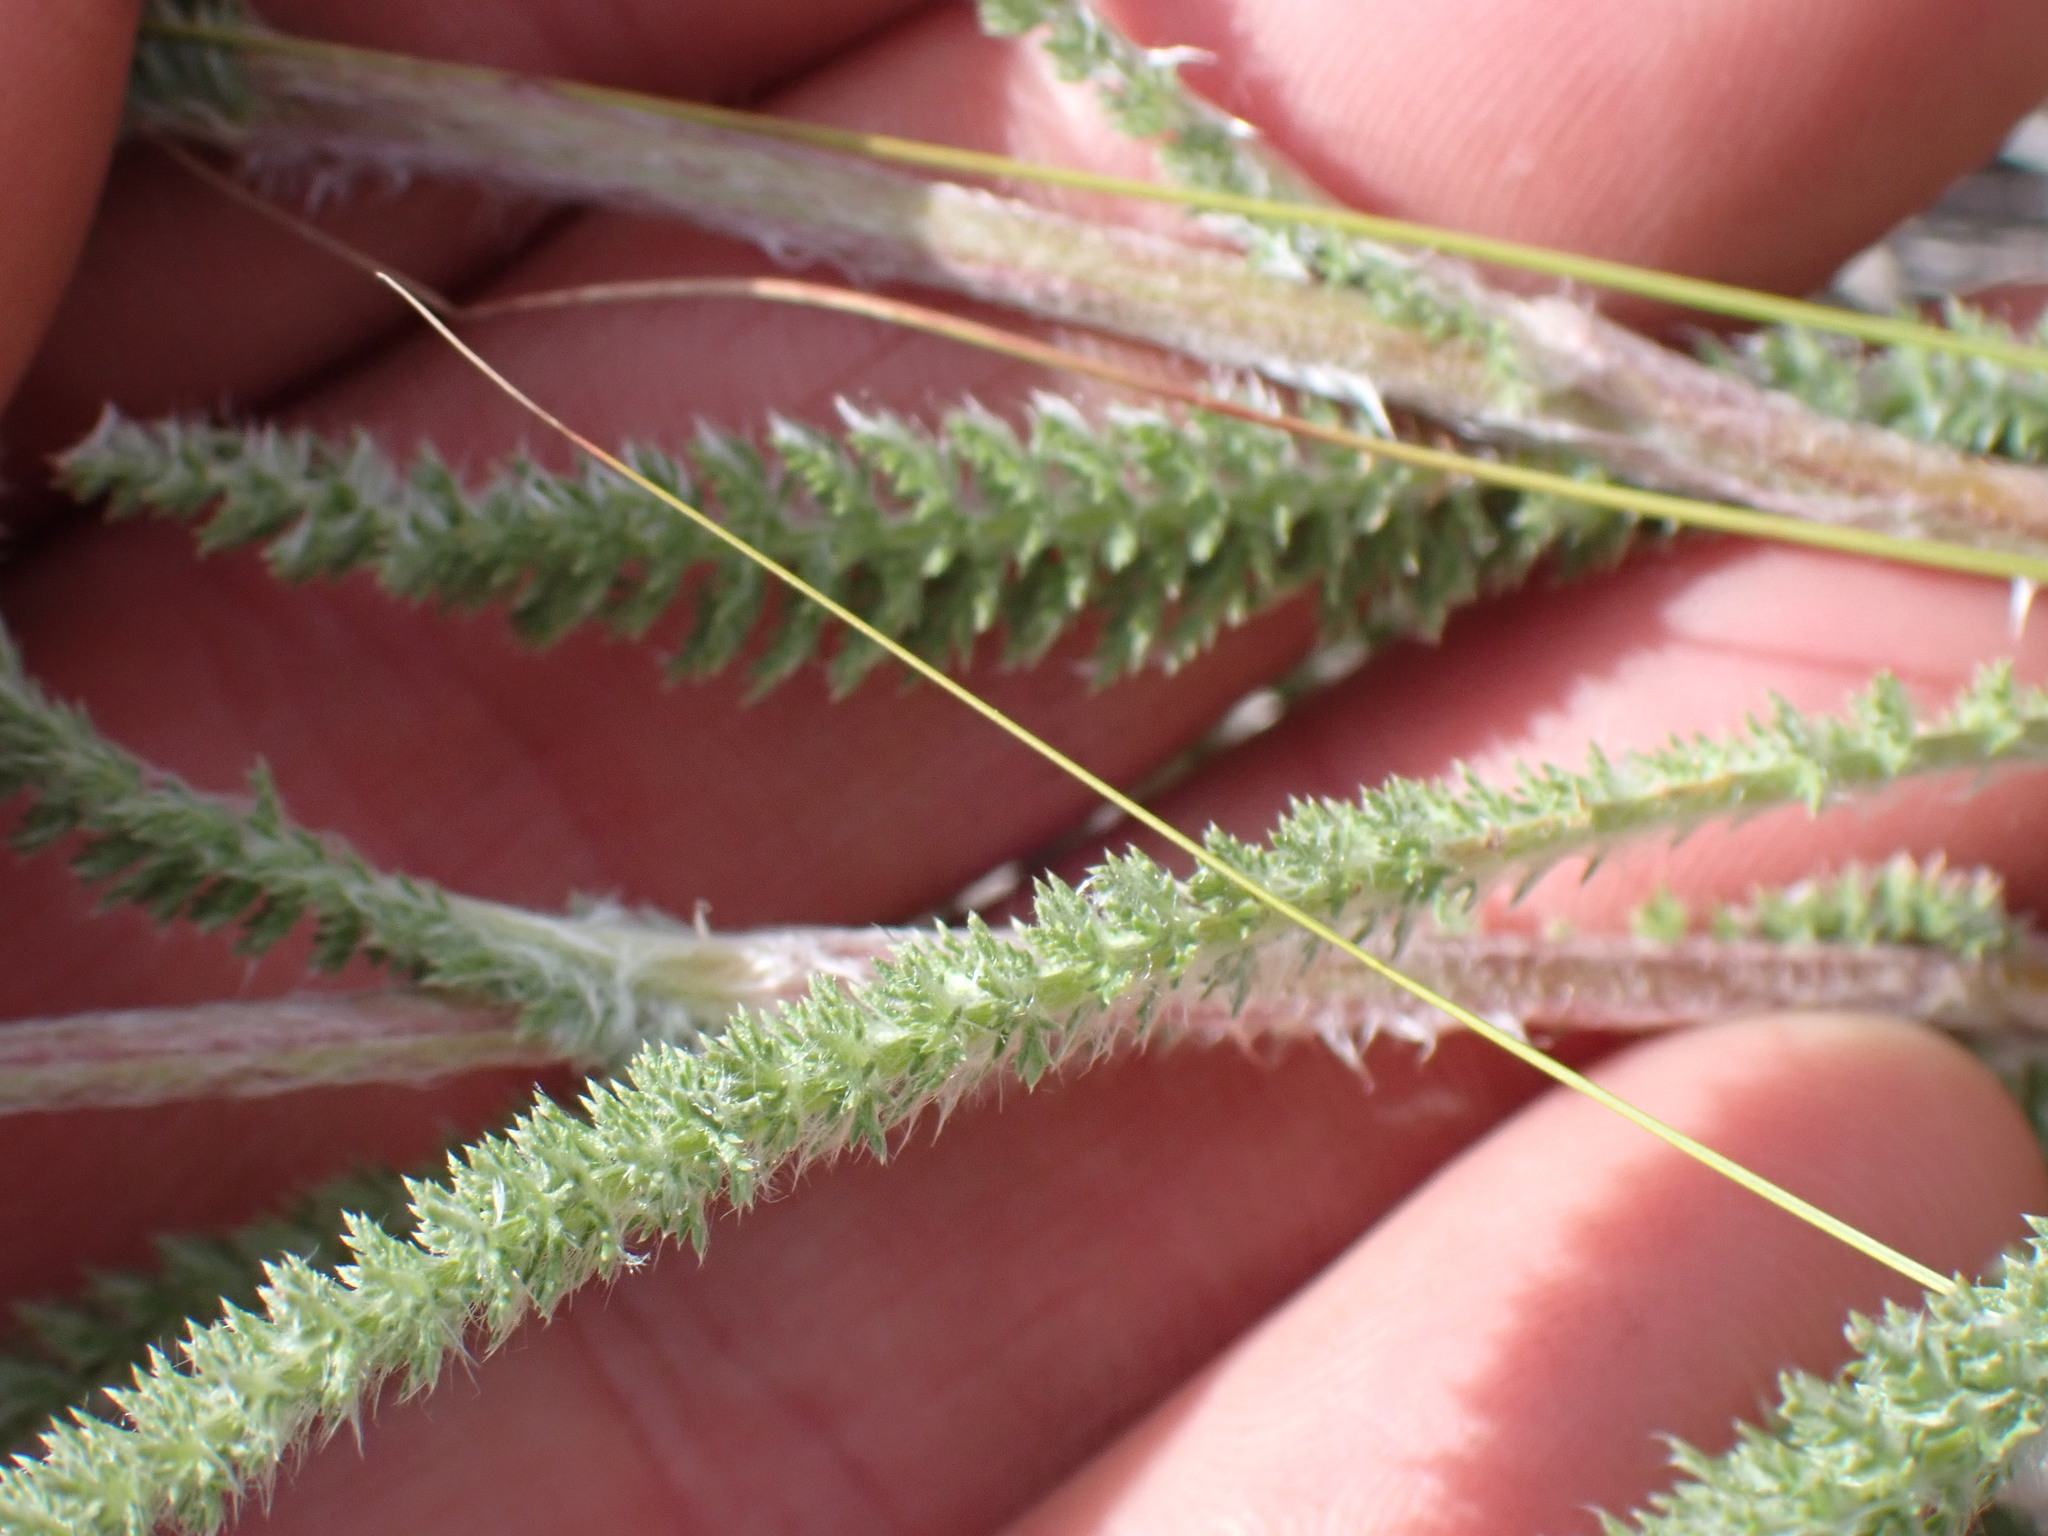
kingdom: Plantae
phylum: Tracheophyta
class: Magnoliopsida
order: Asterales
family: Asteraceae
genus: Achillea
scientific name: Achillea millefolium
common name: Yarrow
